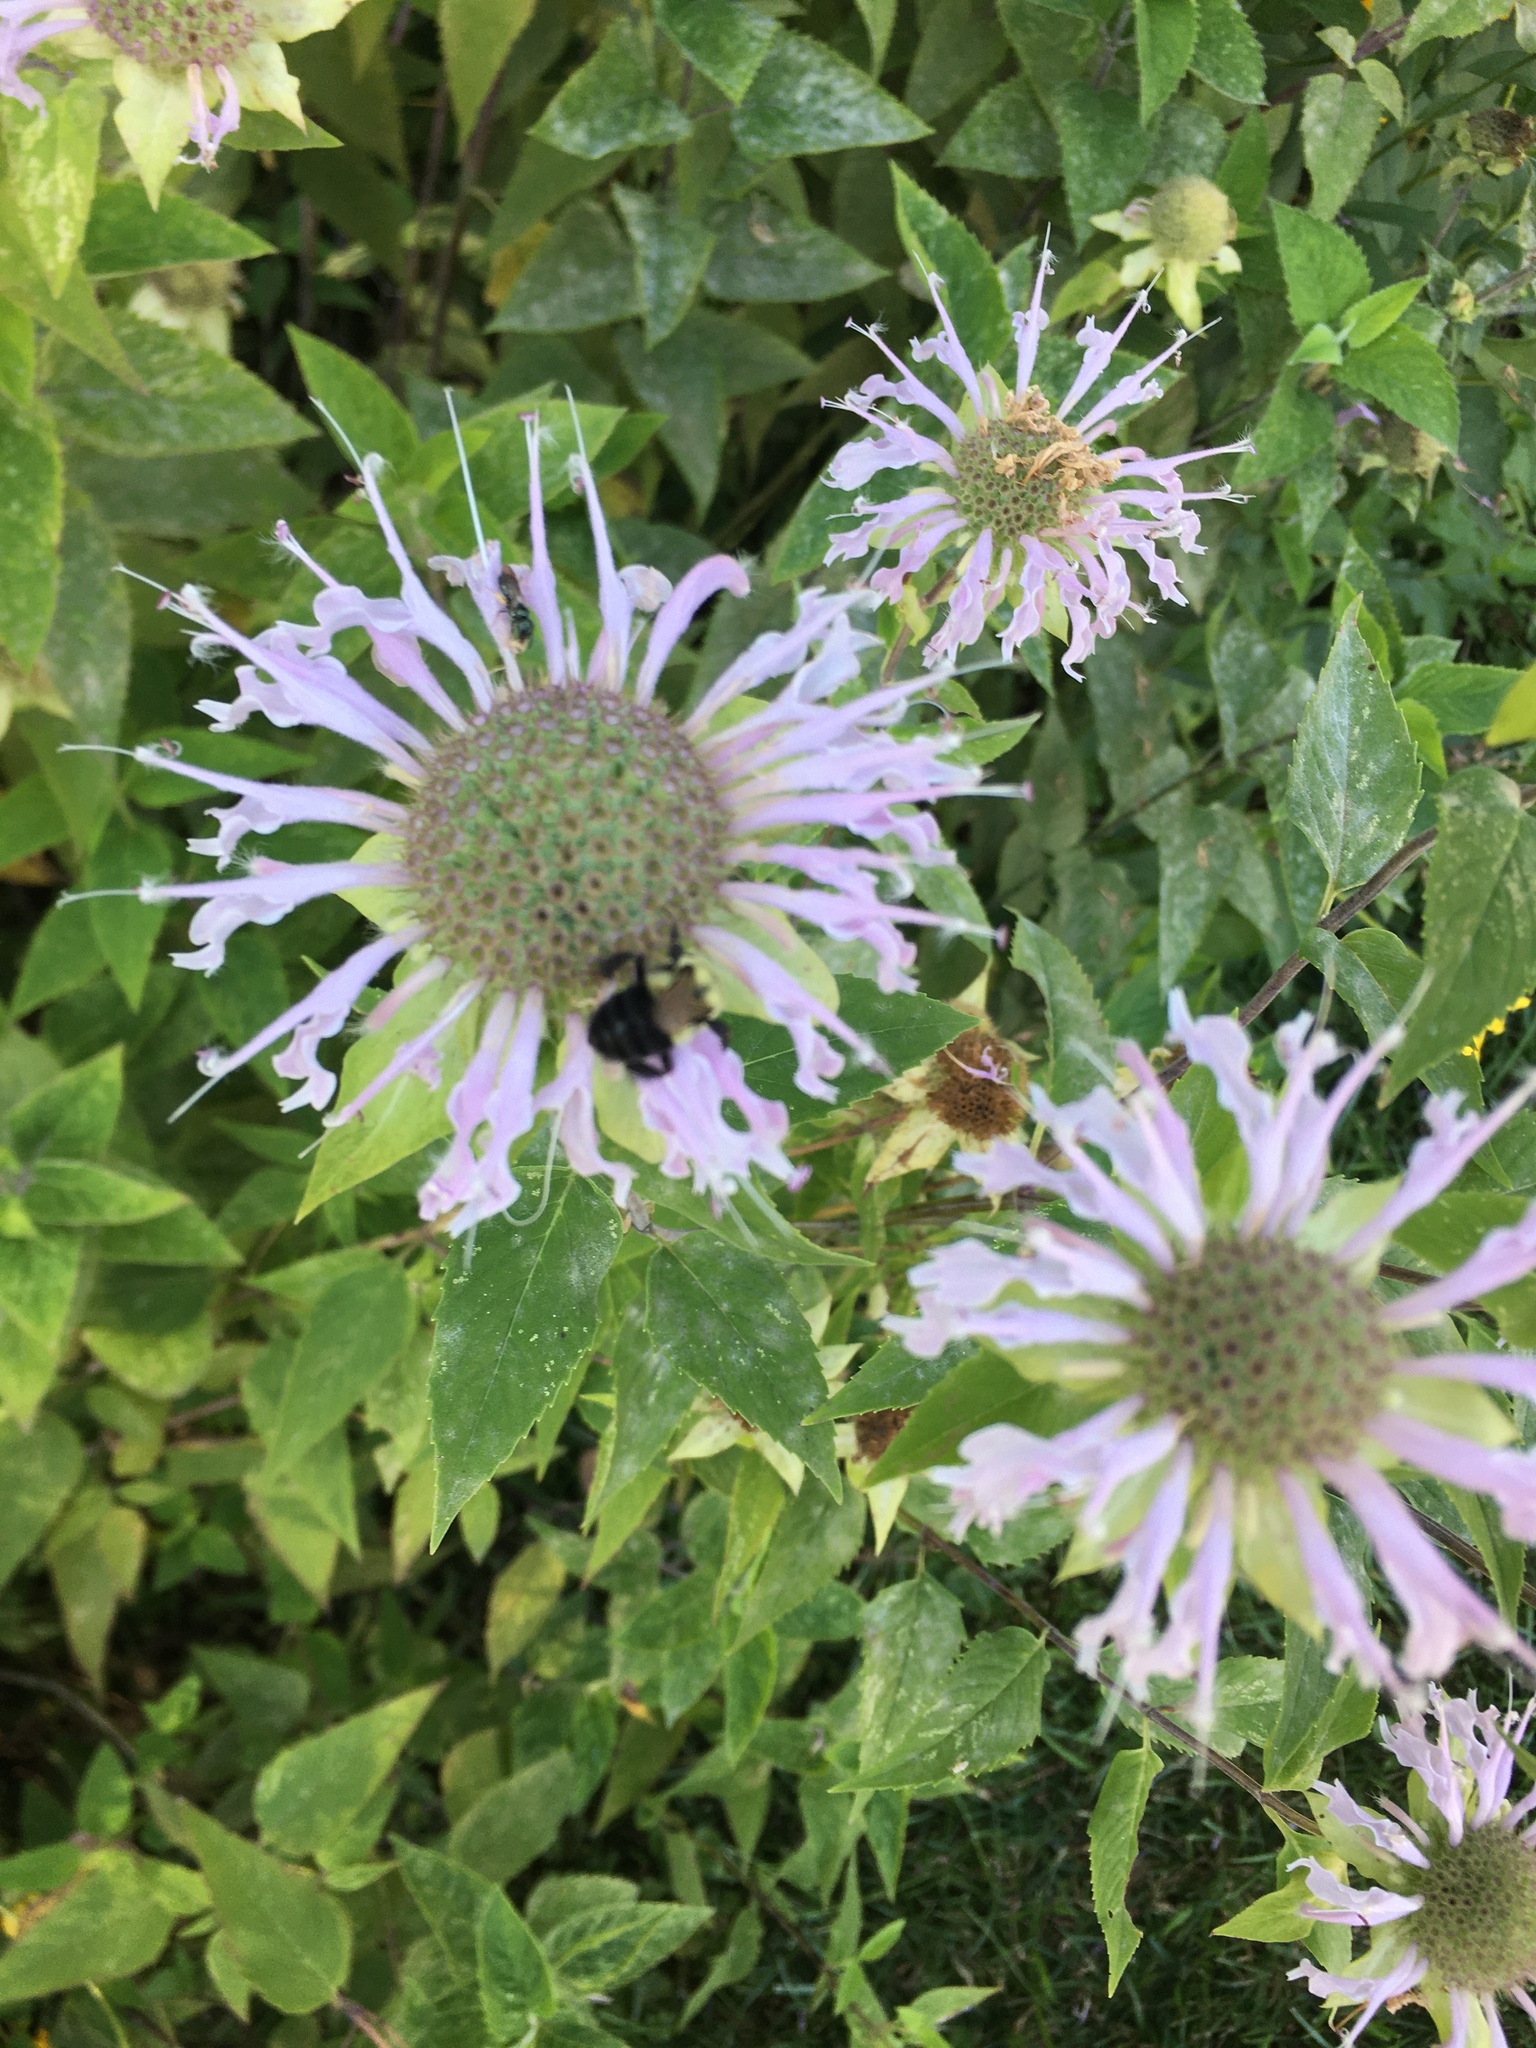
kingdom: Animalia
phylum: Arthropoda
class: Insecta
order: Hymenoptera
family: Apidae
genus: Bombus
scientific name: Bombus impatiens
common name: Common eastern bumble bee
